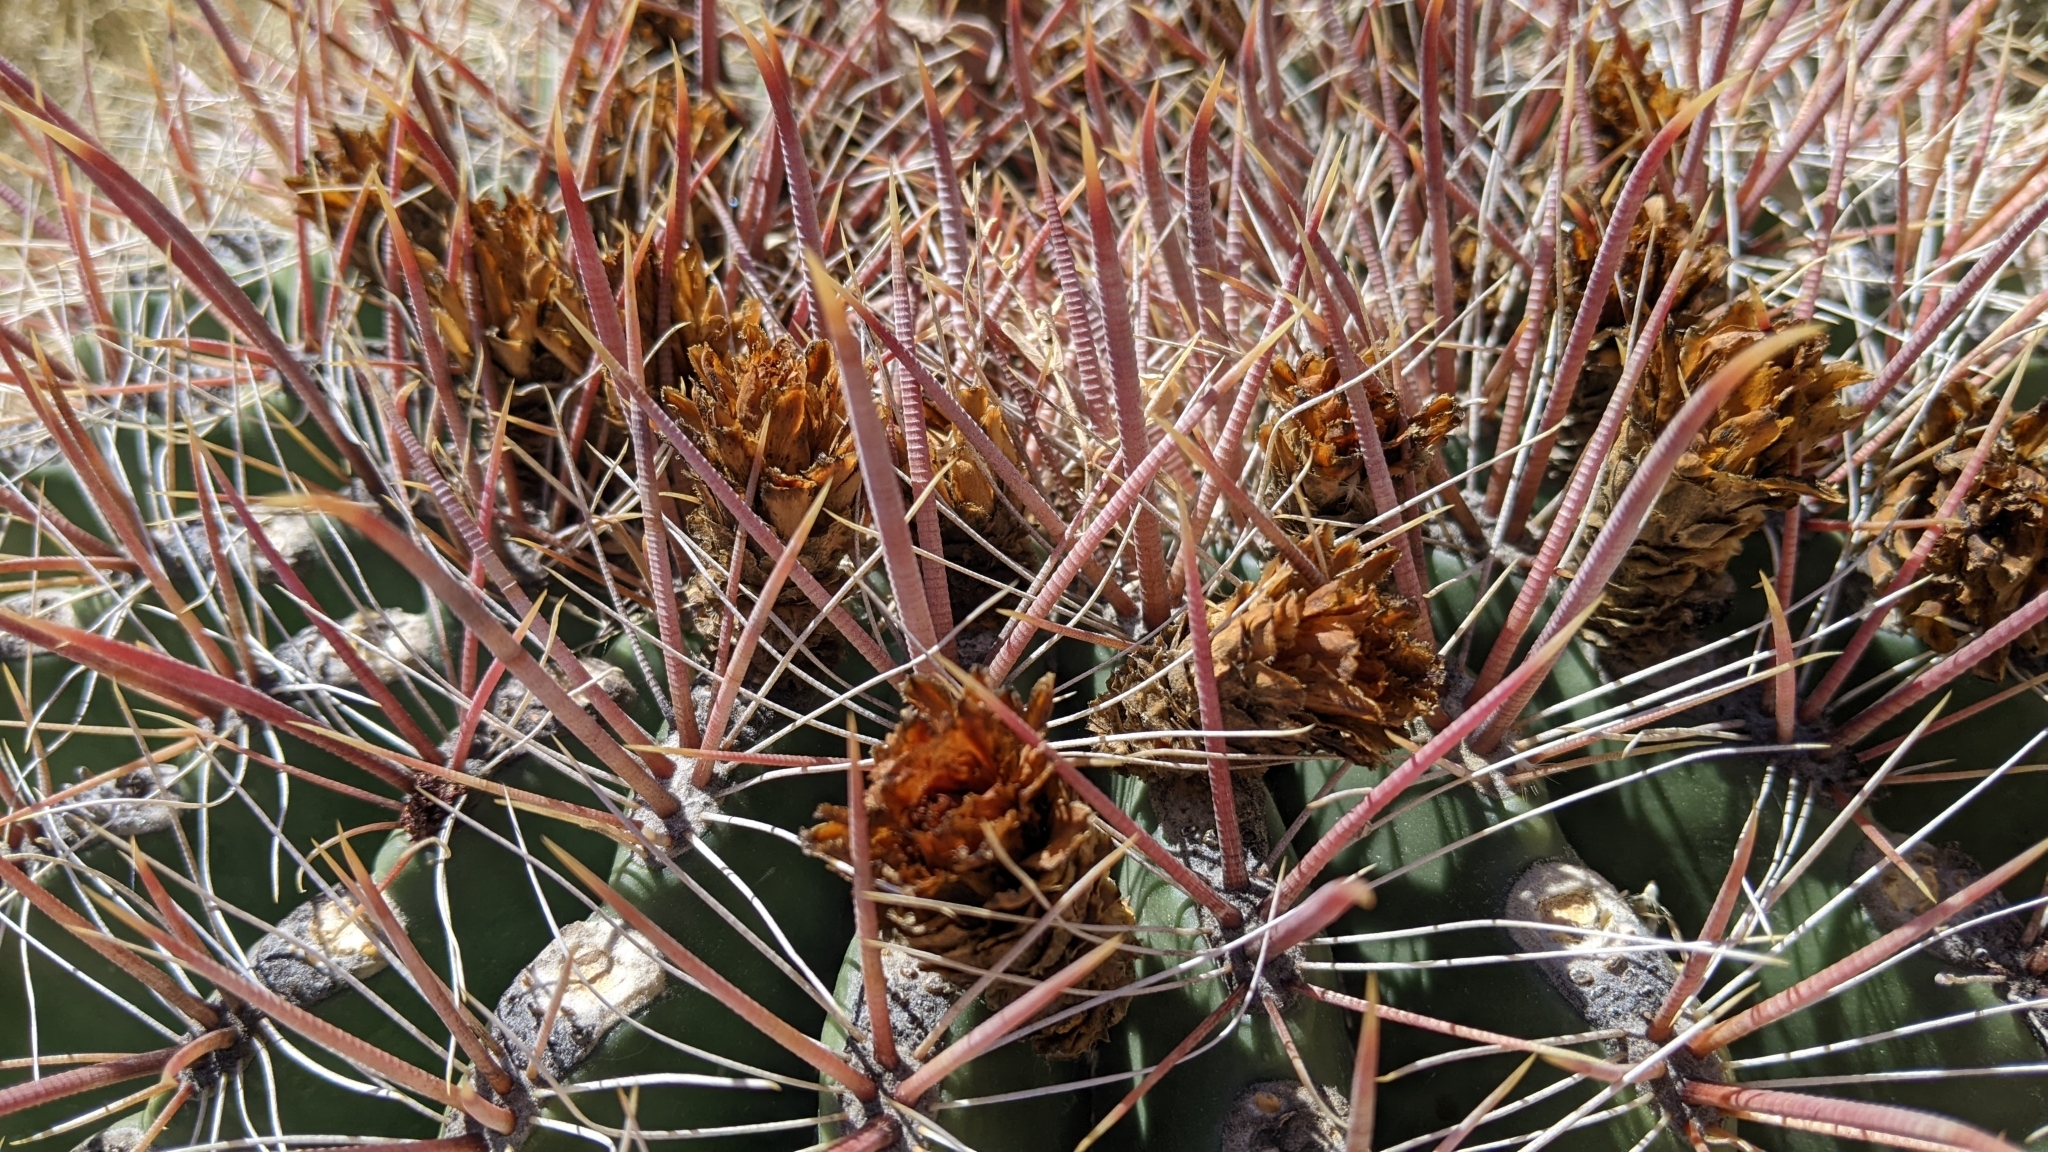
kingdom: Plantae
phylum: Tracheophyta
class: Magnoliopsida
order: Caryophyllales
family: Cactaceae
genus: Ferocactus
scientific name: Ferocactus wislizeni
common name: Candy barrel cactus
